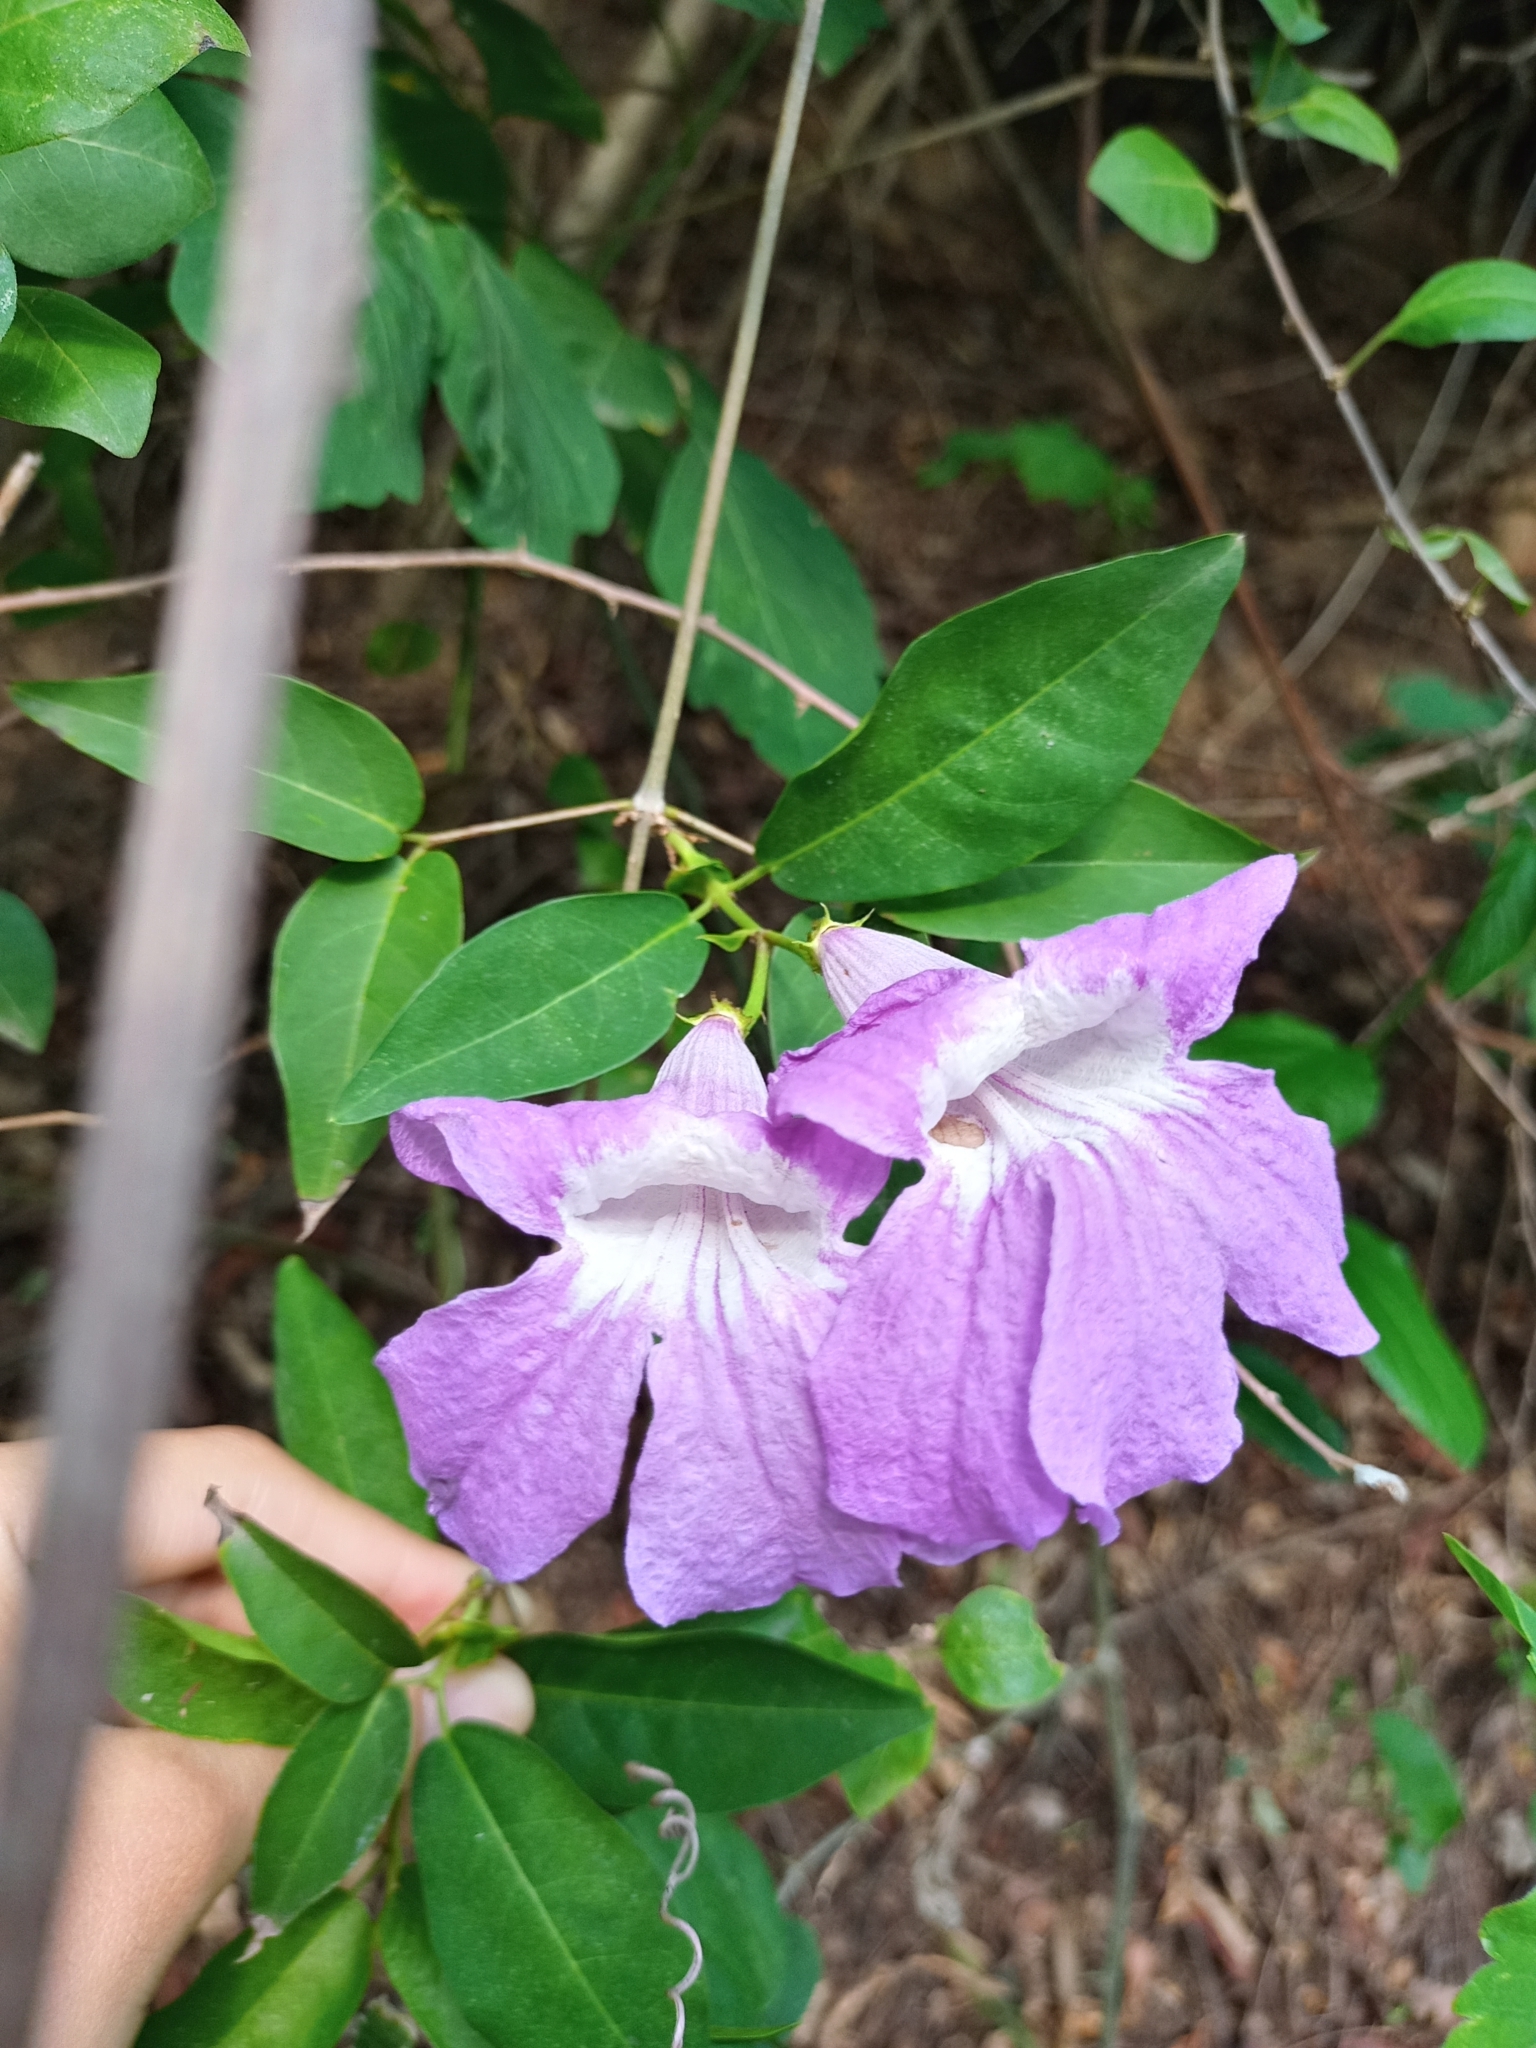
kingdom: Plantae
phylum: Tracheophyta
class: Magnoliopsida
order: Lamiales
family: Bignoniaceae
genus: Bignonia
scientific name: Bignonia callistegioides
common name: Argentine trumpetvine
